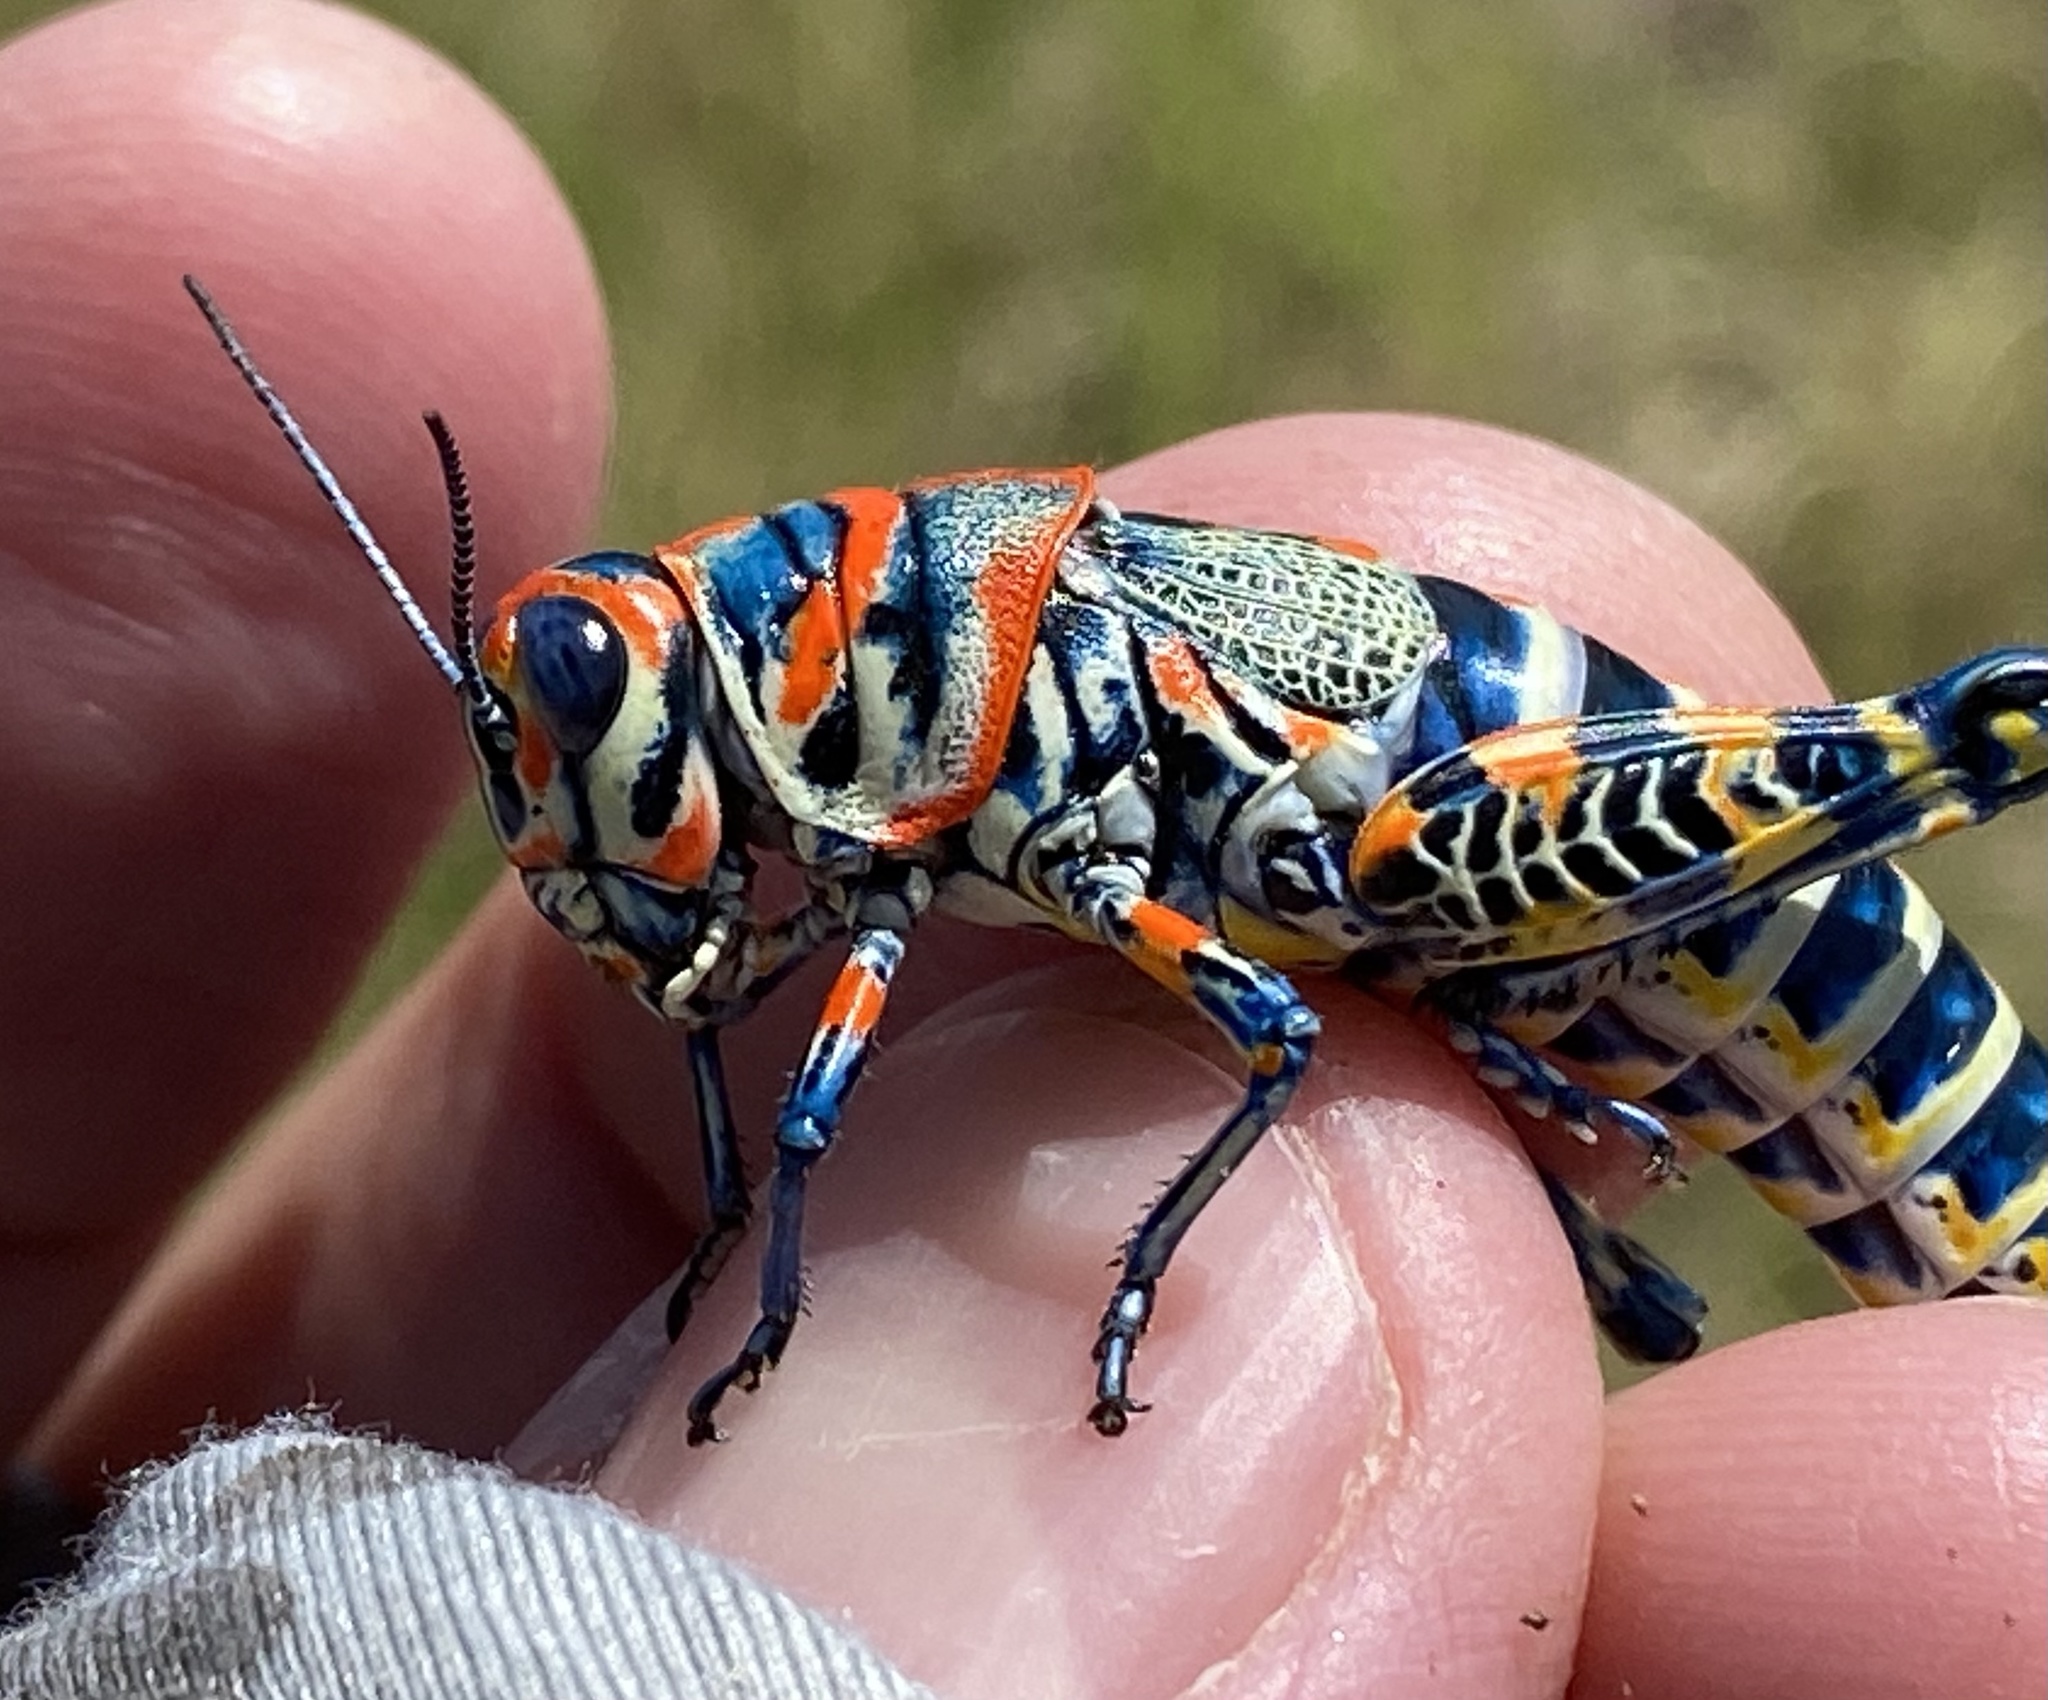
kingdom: Animalia
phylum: Arthropoda
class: Insecta
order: Orthoptera
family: Acrididae
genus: Dactylotum
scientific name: Dactylotum bicolor
